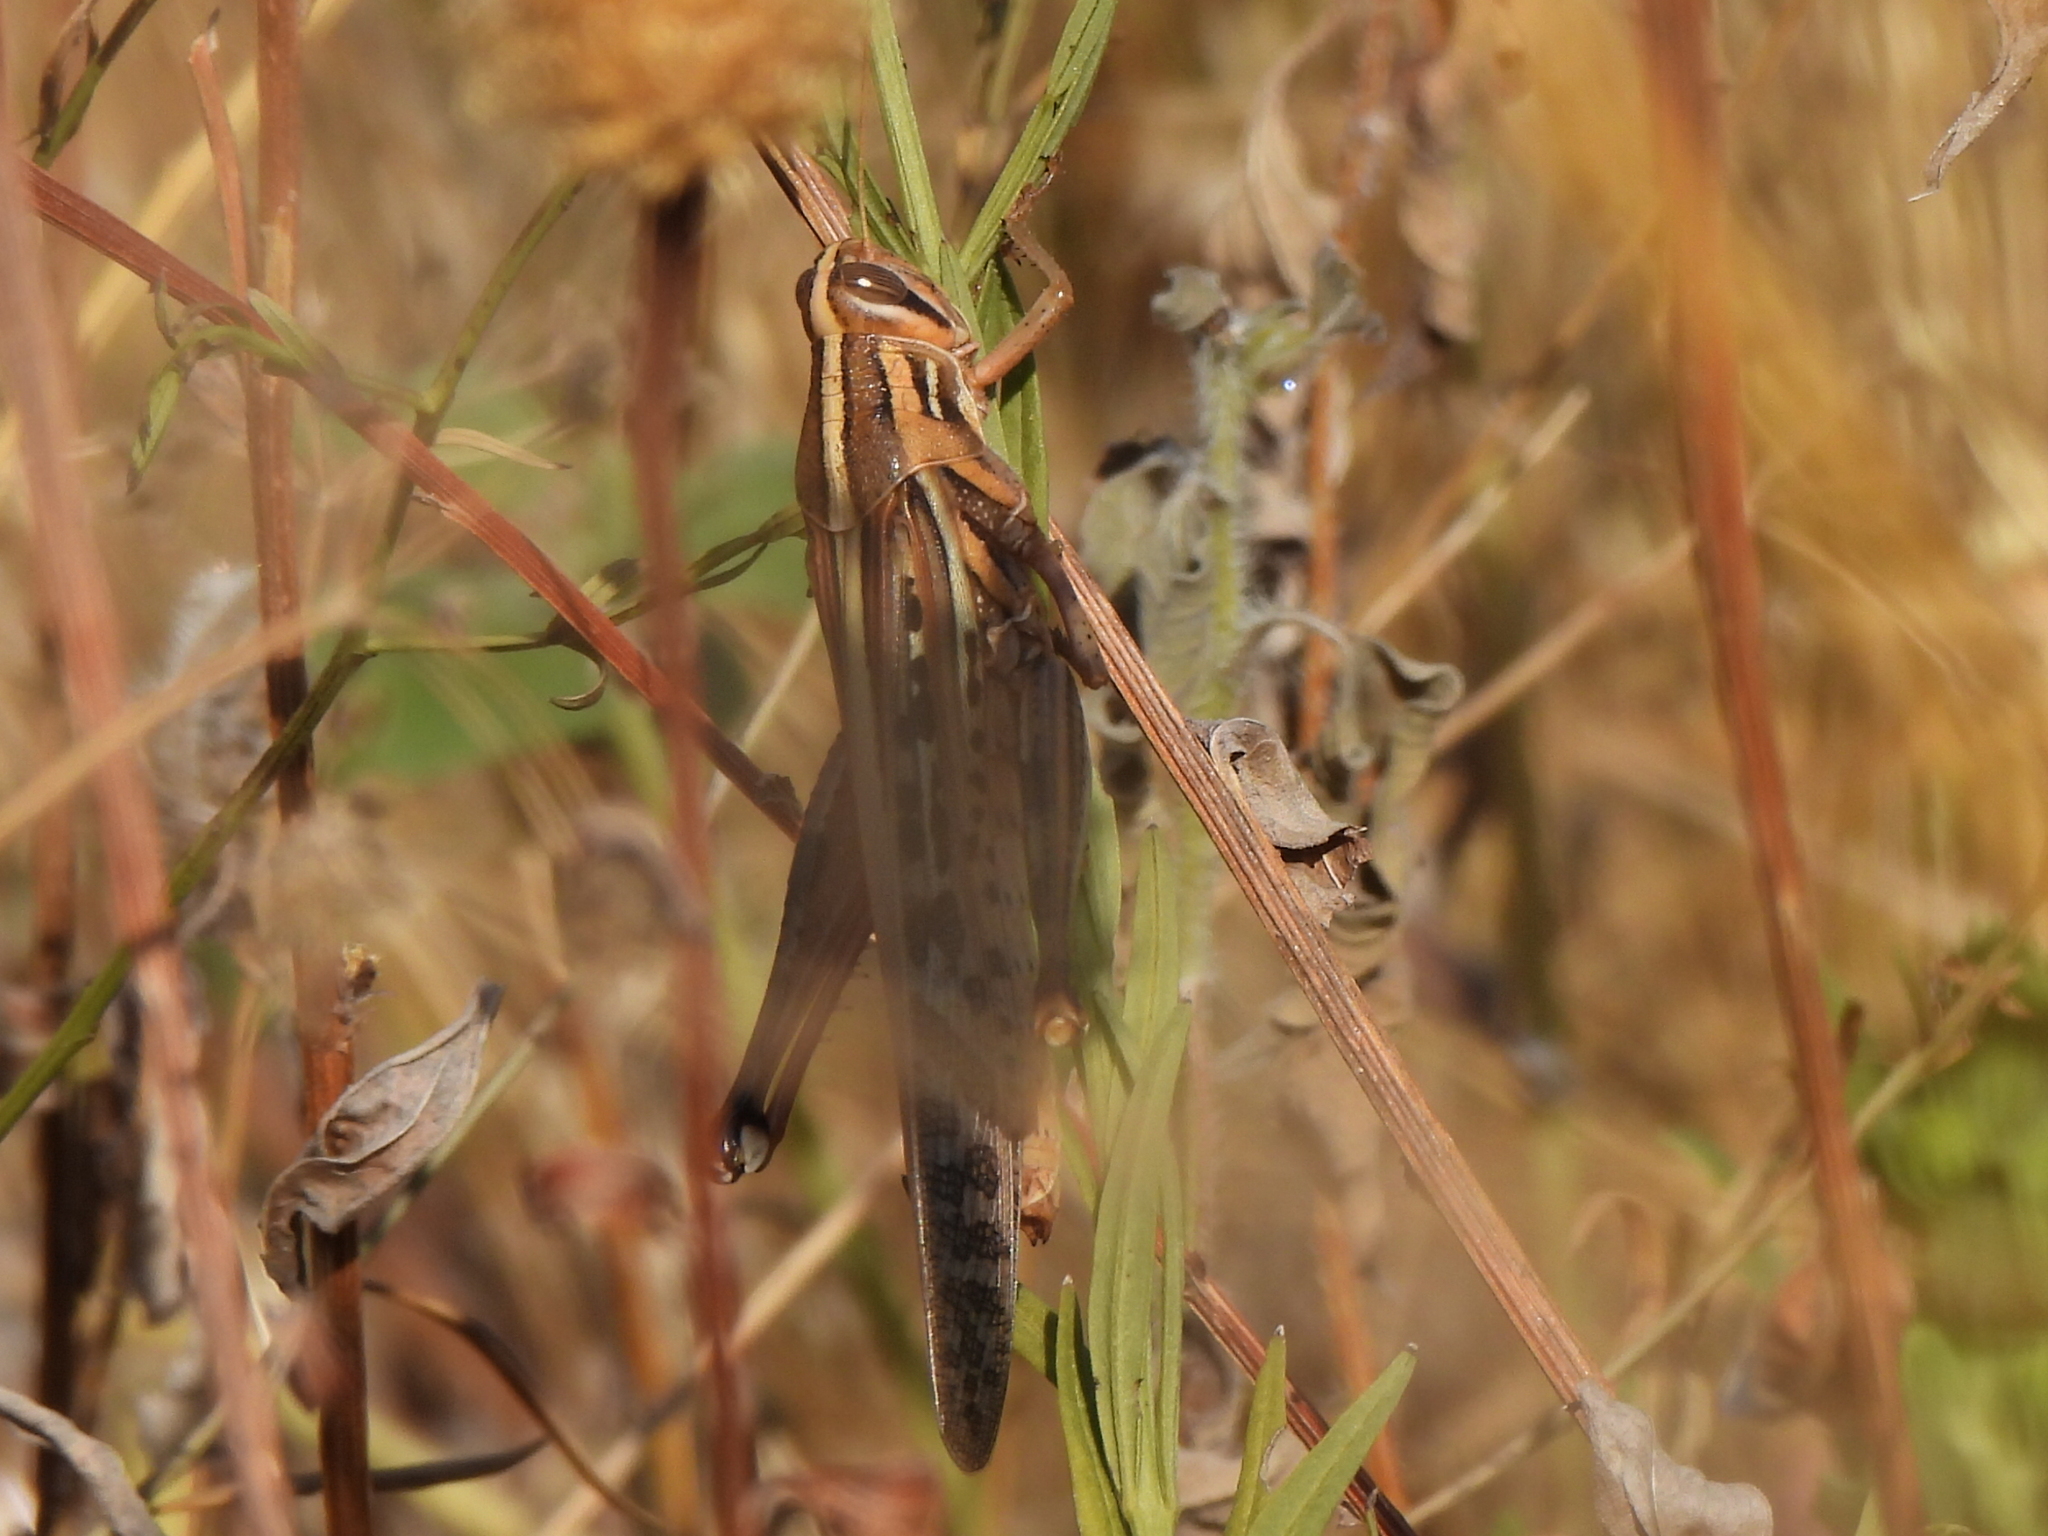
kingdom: Animalia
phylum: Arthropoda
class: Insecta
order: Orthoptera
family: Acrididae
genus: Schistocerca
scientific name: Schistocerca americana
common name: American bird locust
